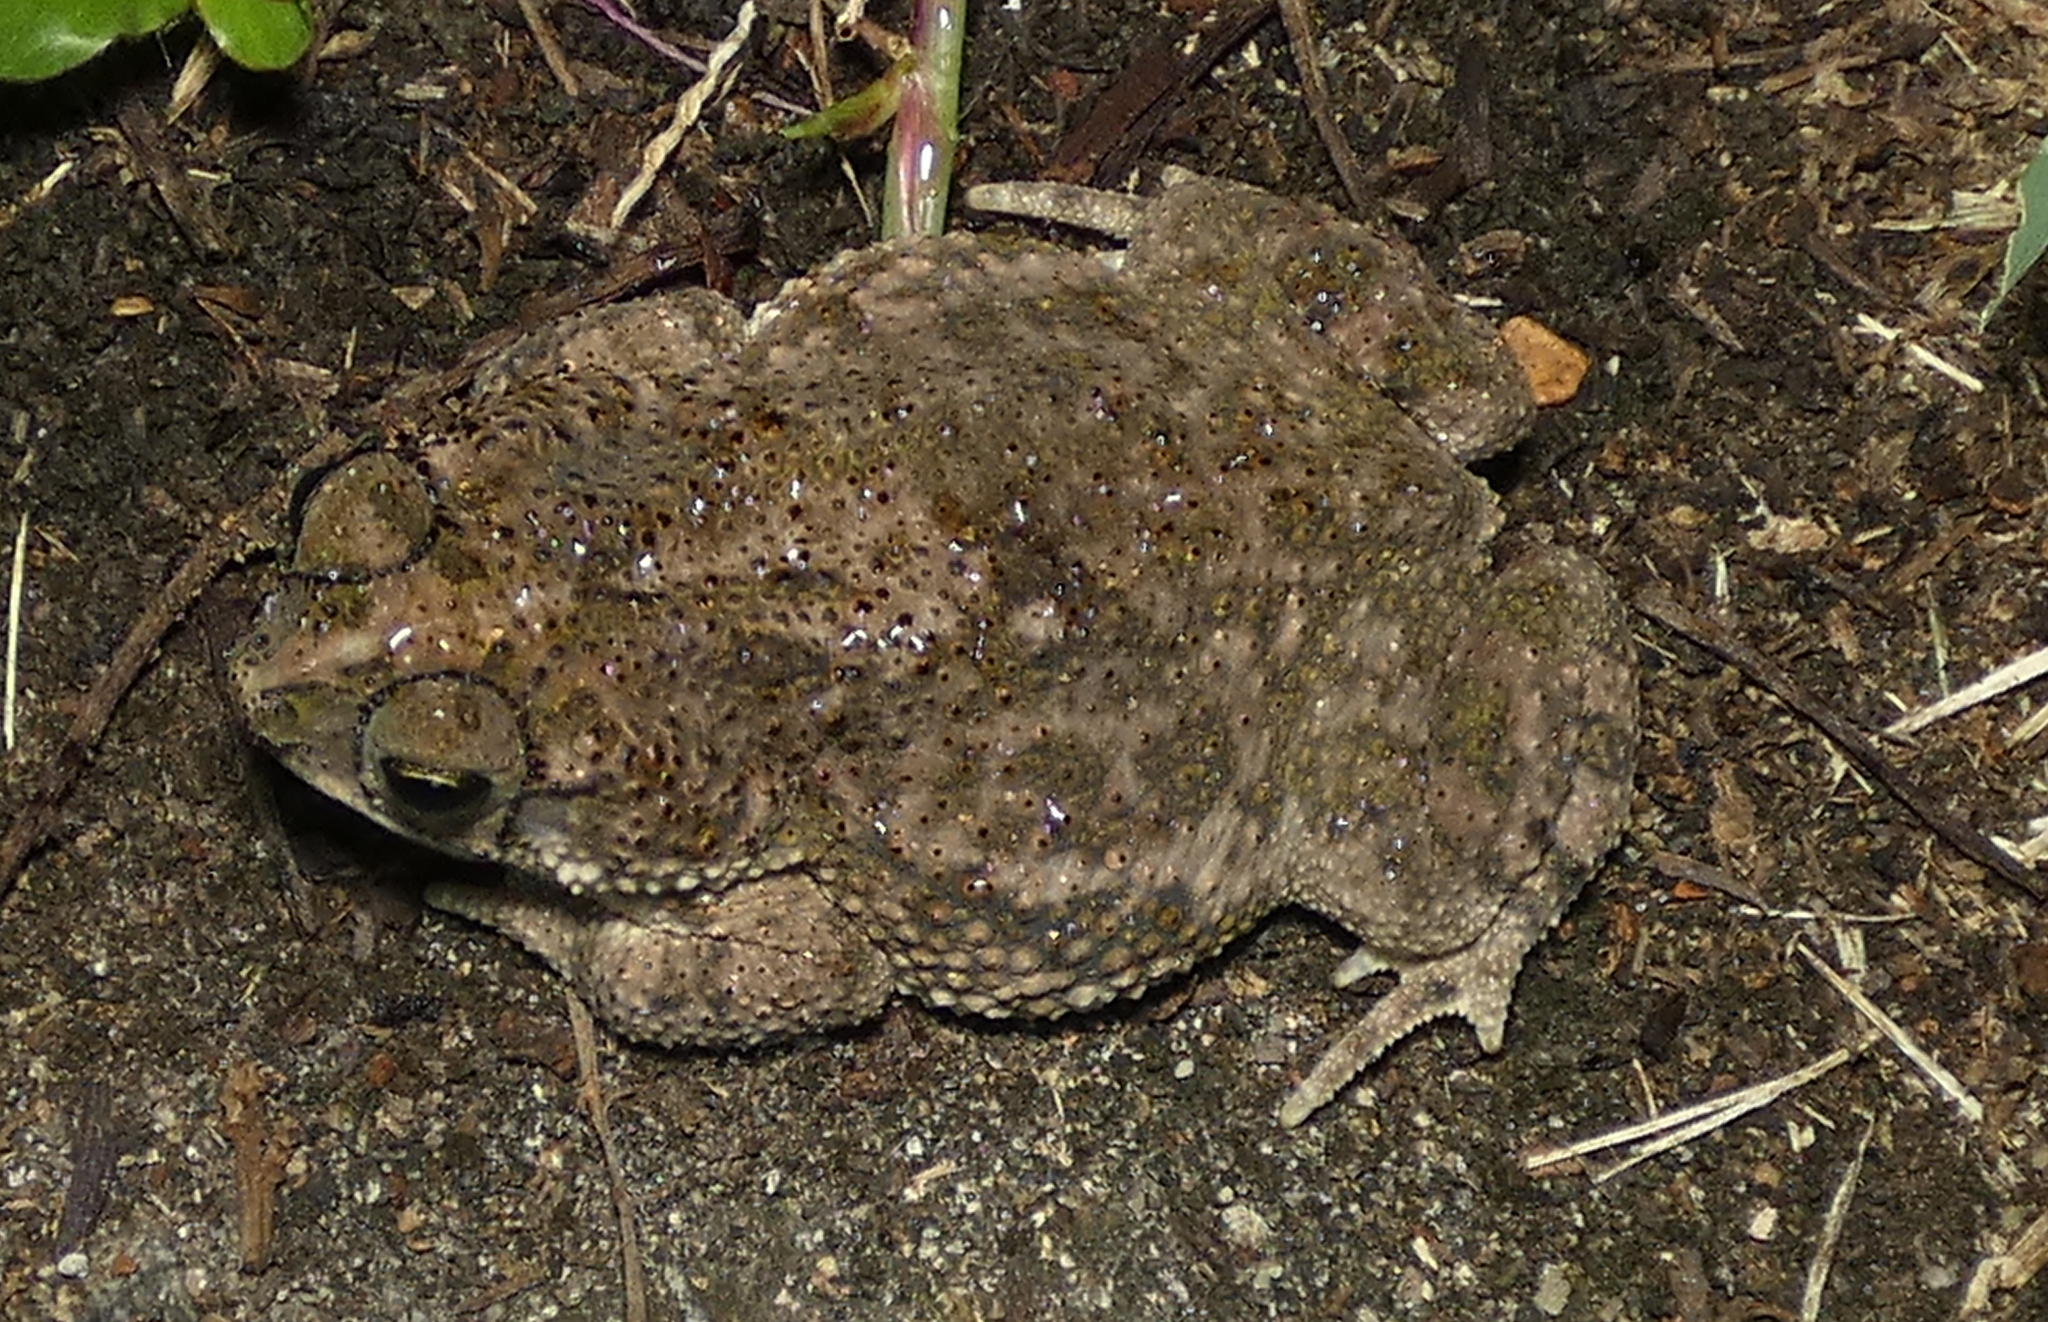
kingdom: Animalia
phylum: Chordata
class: Amphibia
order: Anura
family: Bufonidae
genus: Rhinella
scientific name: Rhinella granulosa
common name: Common lesser toad
